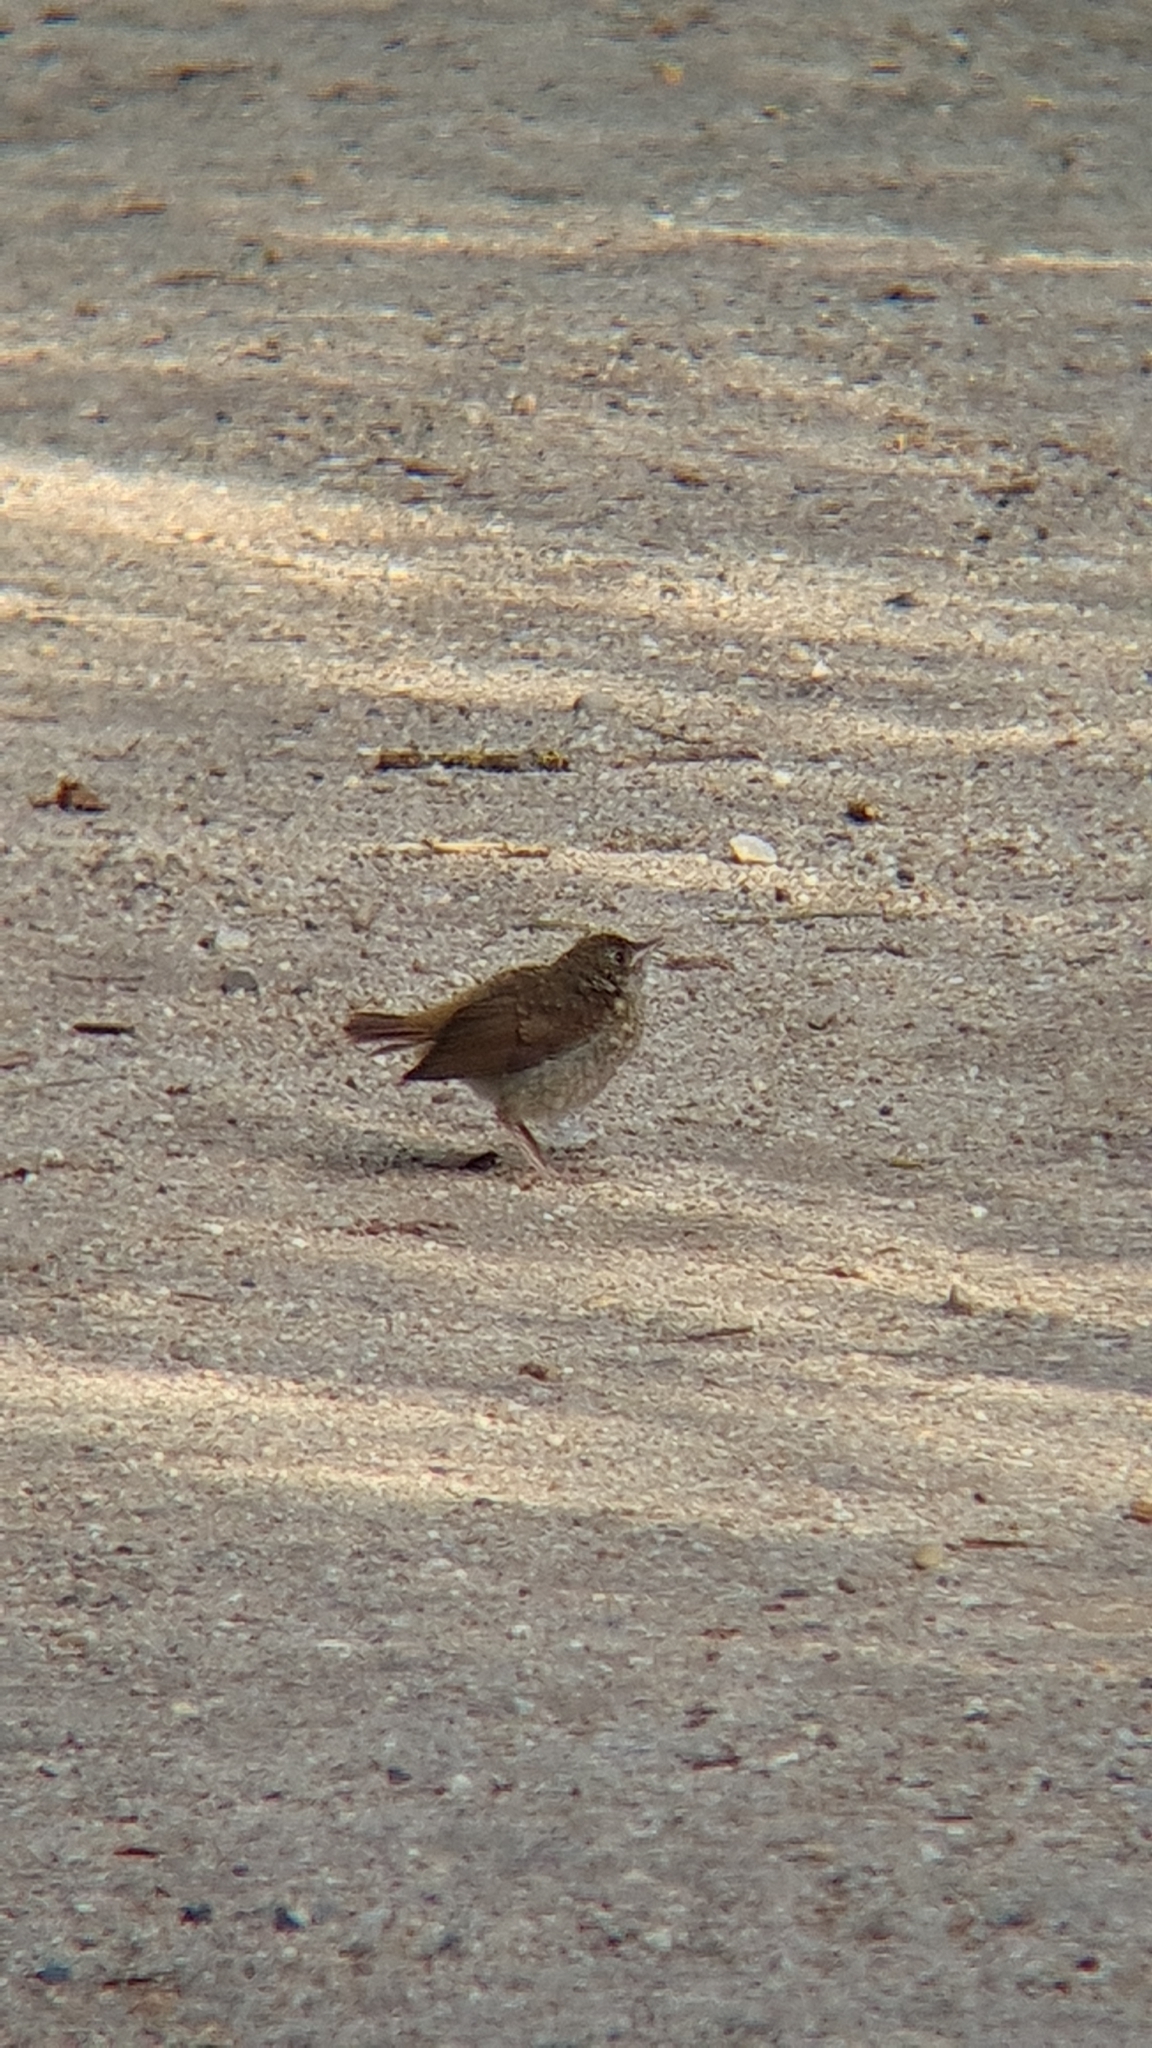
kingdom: Animalia
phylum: Chordata
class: Aves
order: Passeriformes
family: Muscicapidae
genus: Luscinia
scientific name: Luscinia megarhynchos
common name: Common nightingale
